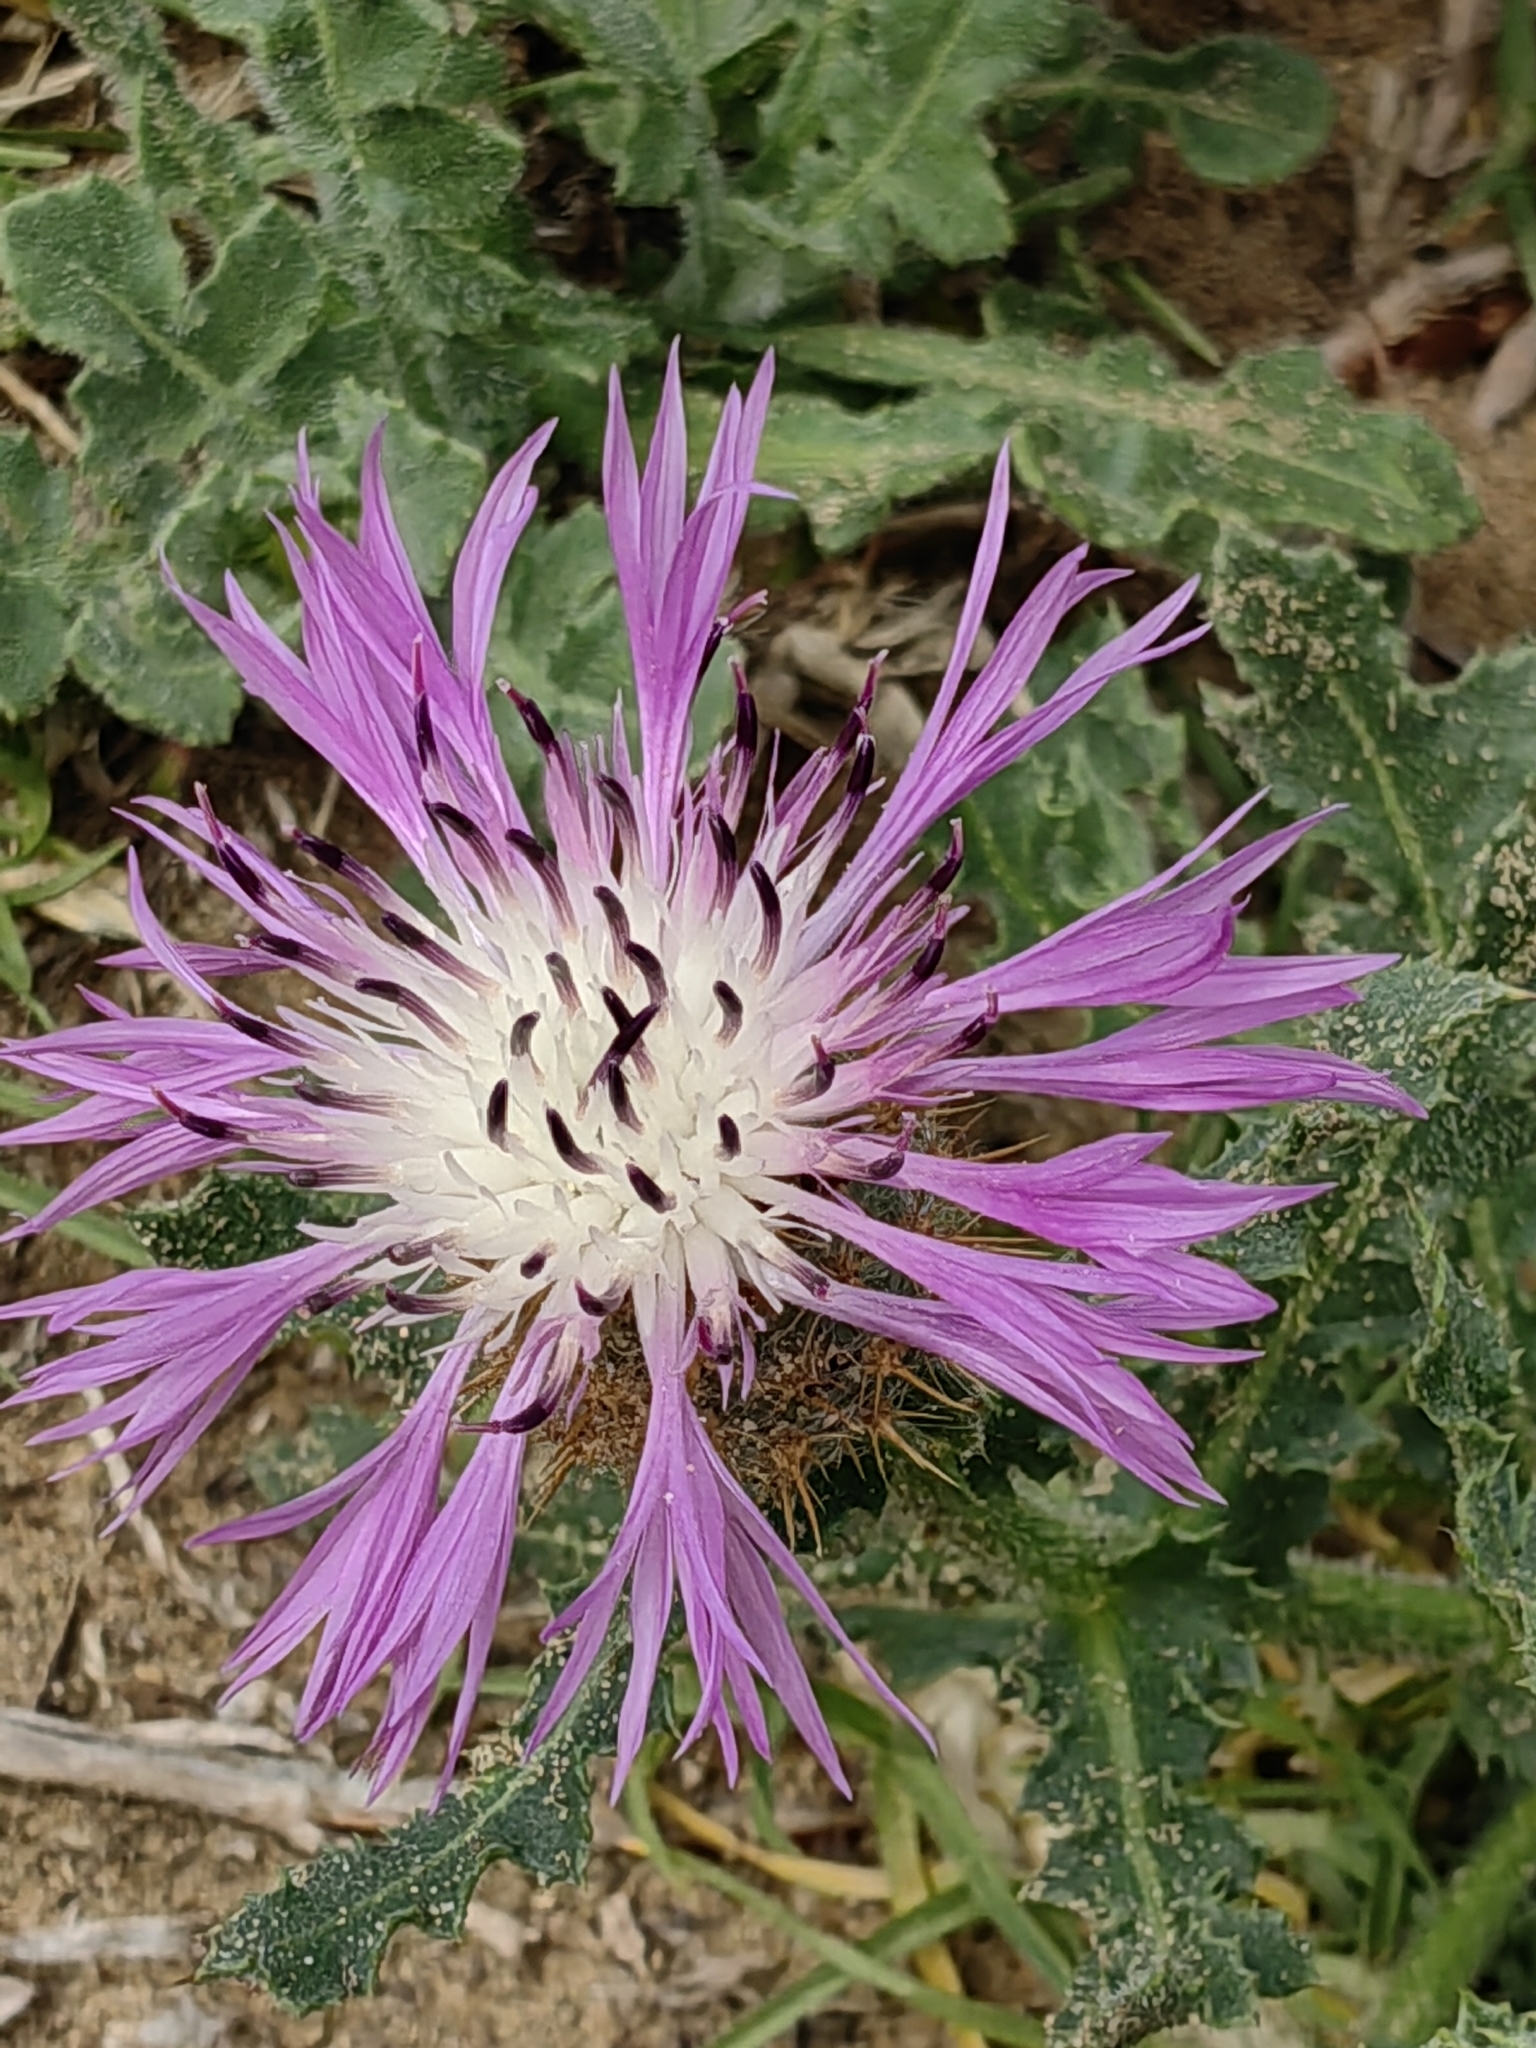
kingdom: Plantae
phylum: Tracheophyta
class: Magnoliopsida
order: Asterales
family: Asteraceae
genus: Centaurea
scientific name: Centaurea polyacantha
